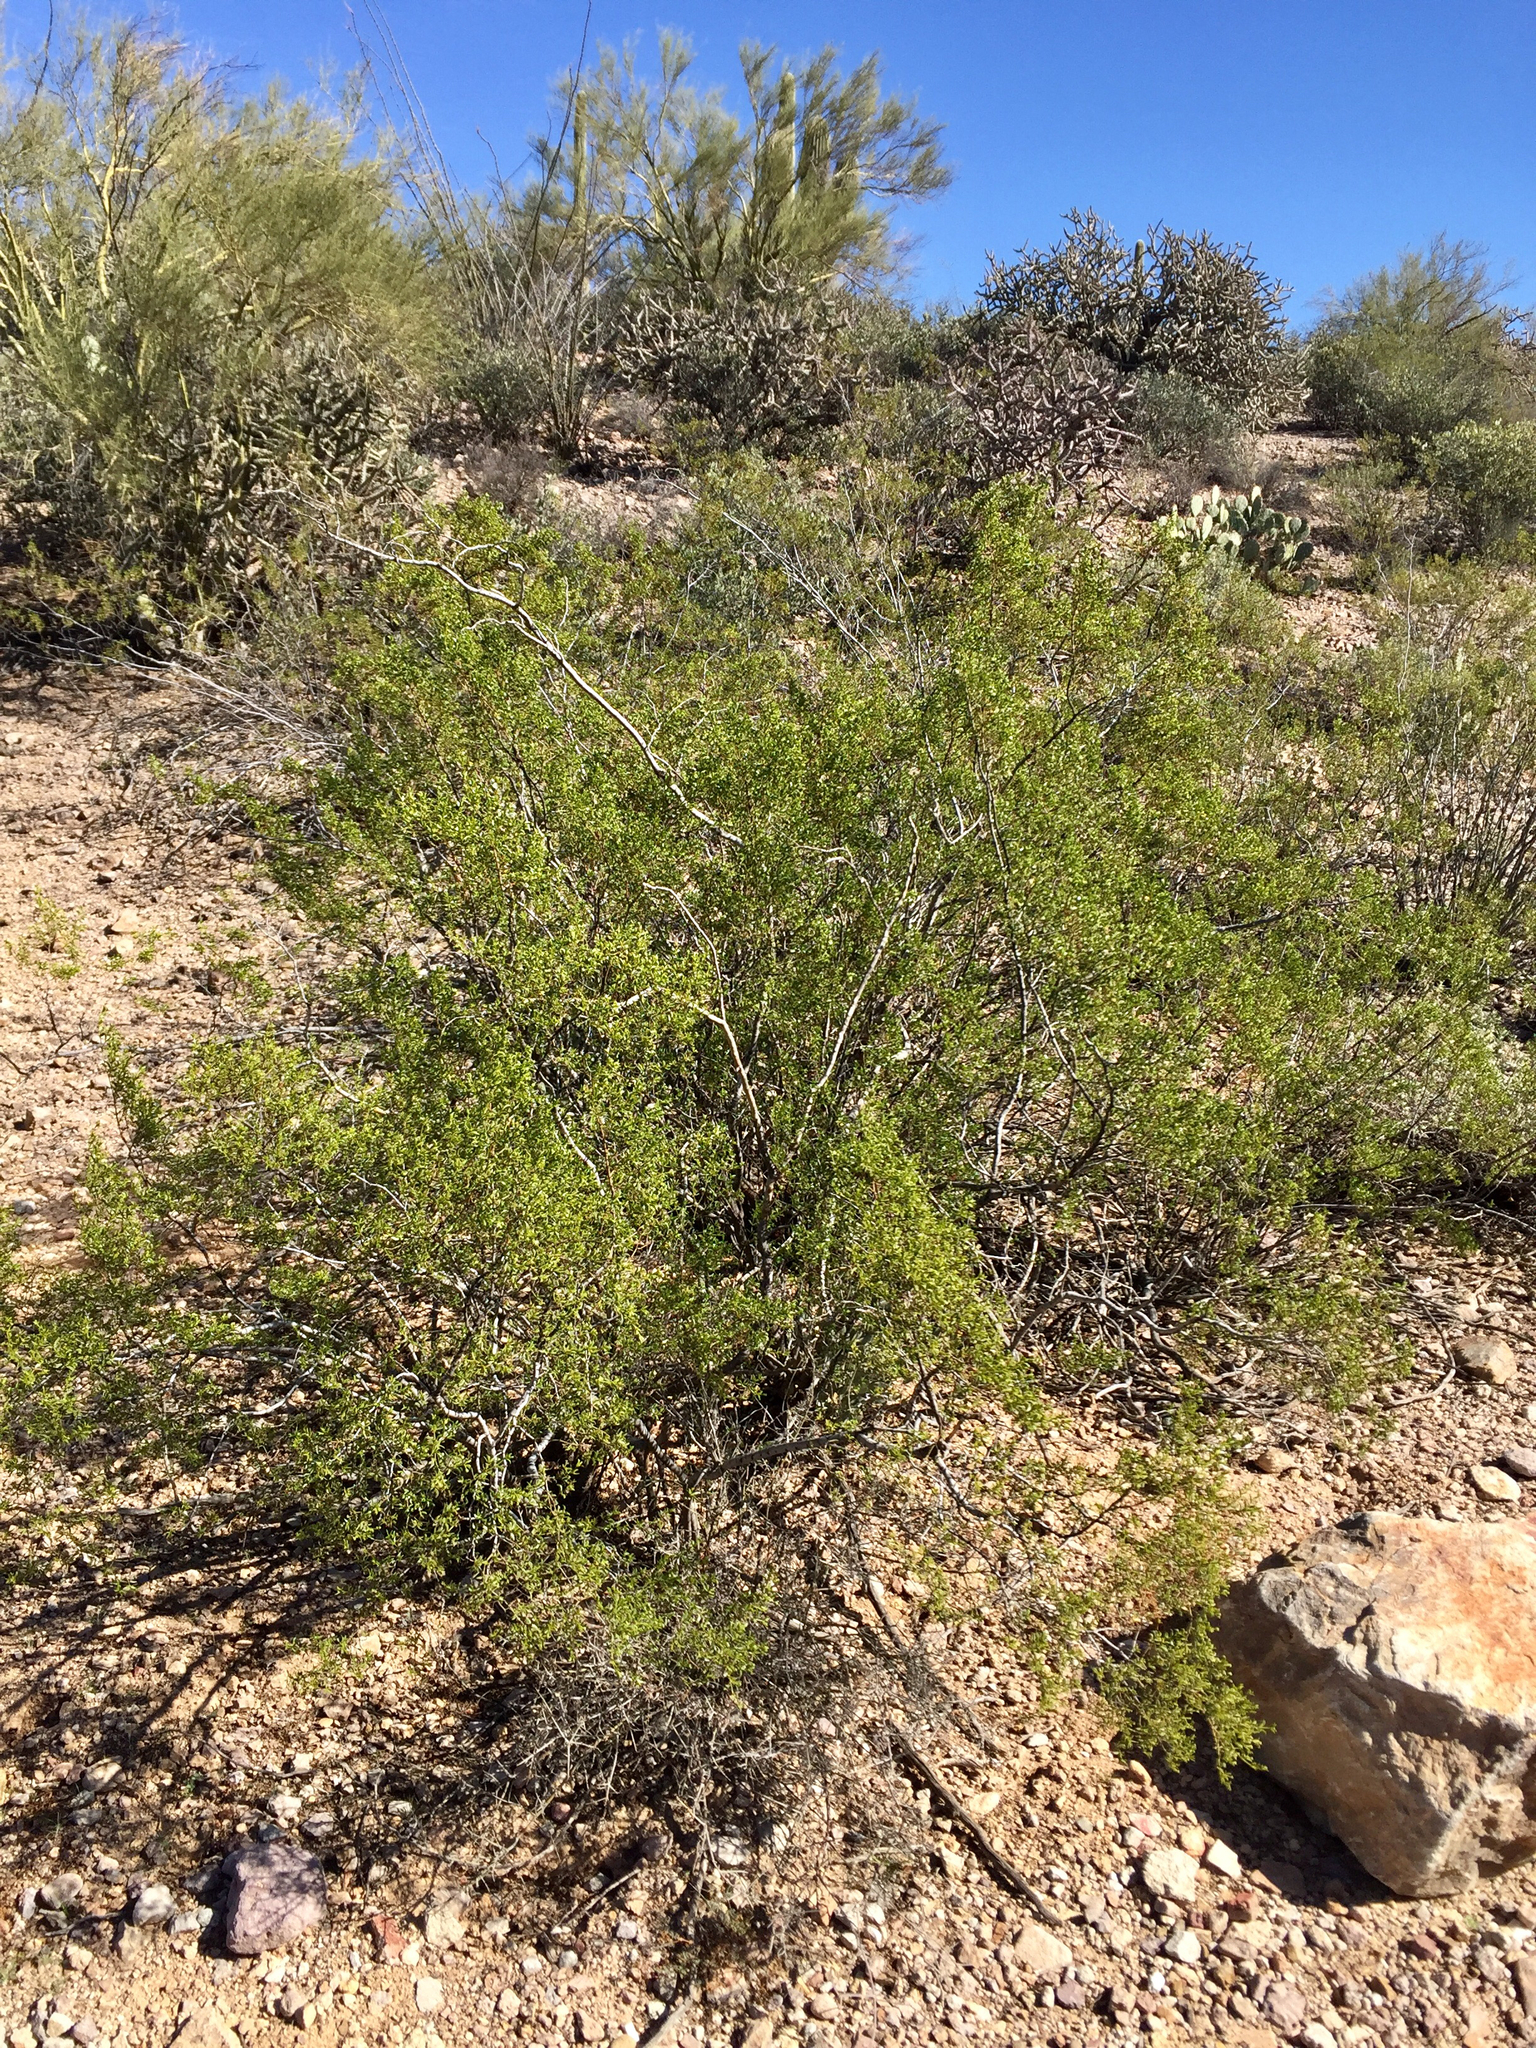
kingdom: Plantae
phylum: Tracheophyta
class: Magnoliopsida
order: Zygophyllales
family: Zygophyllaceae
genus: Larrea
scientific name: Larrea tridentata
